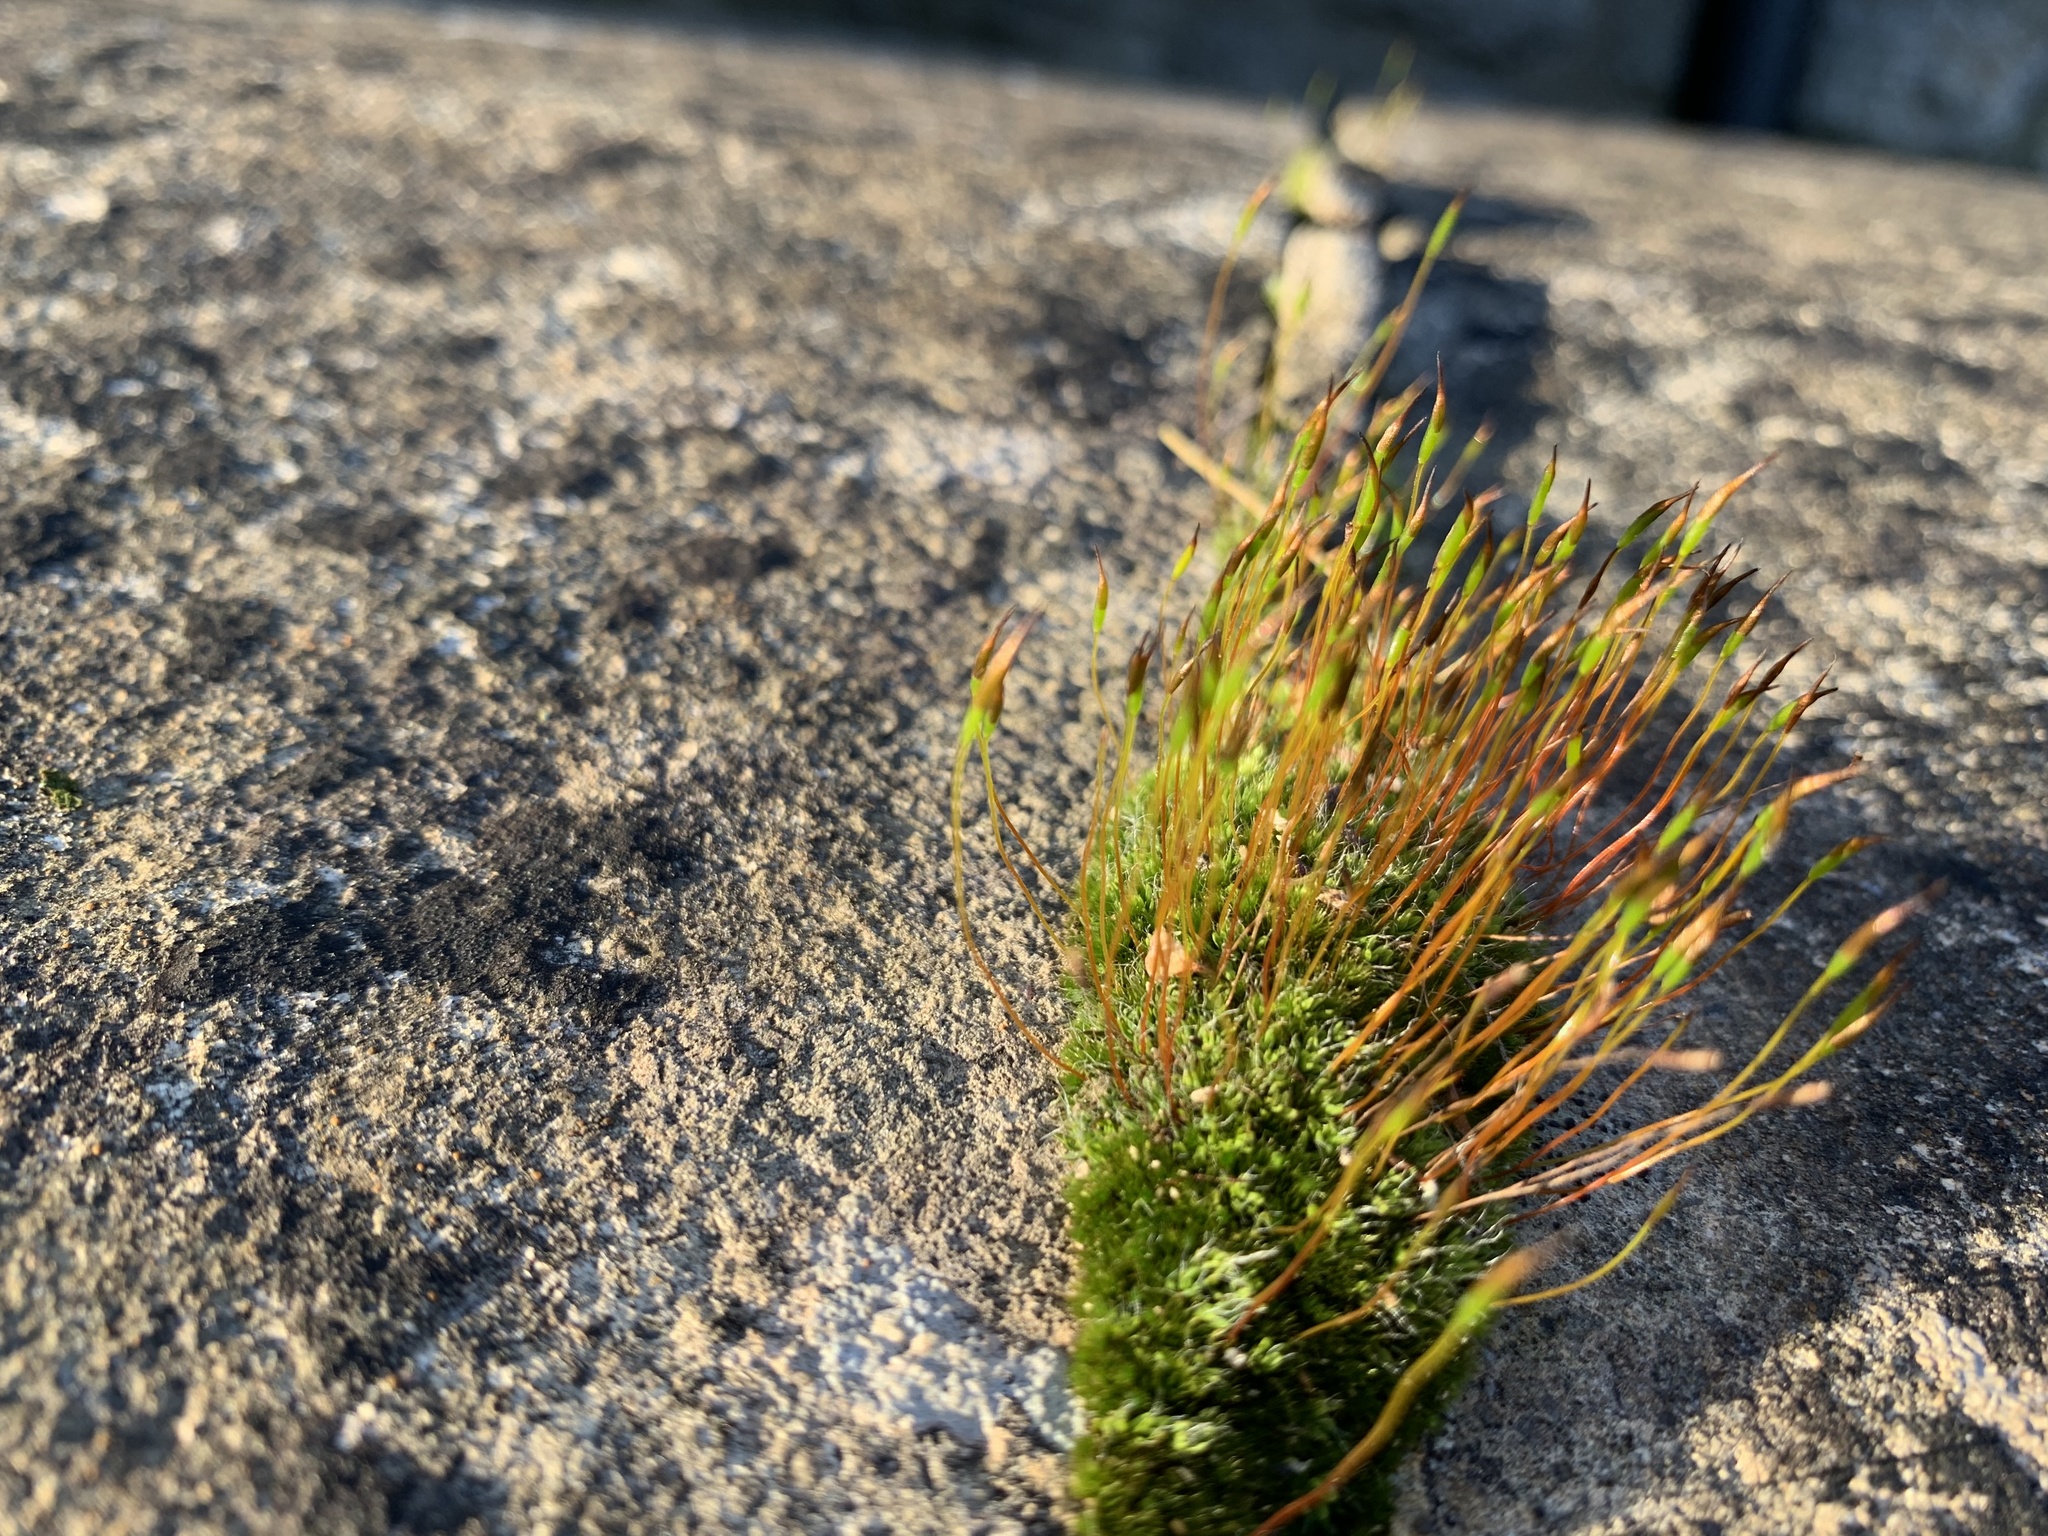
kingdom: Plantae
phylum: Bryophyta
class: Bryopsida
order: Pottiales
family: Pottiaceae
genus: Tortula
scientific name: Tortula muralis
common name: Wall screw-moss
